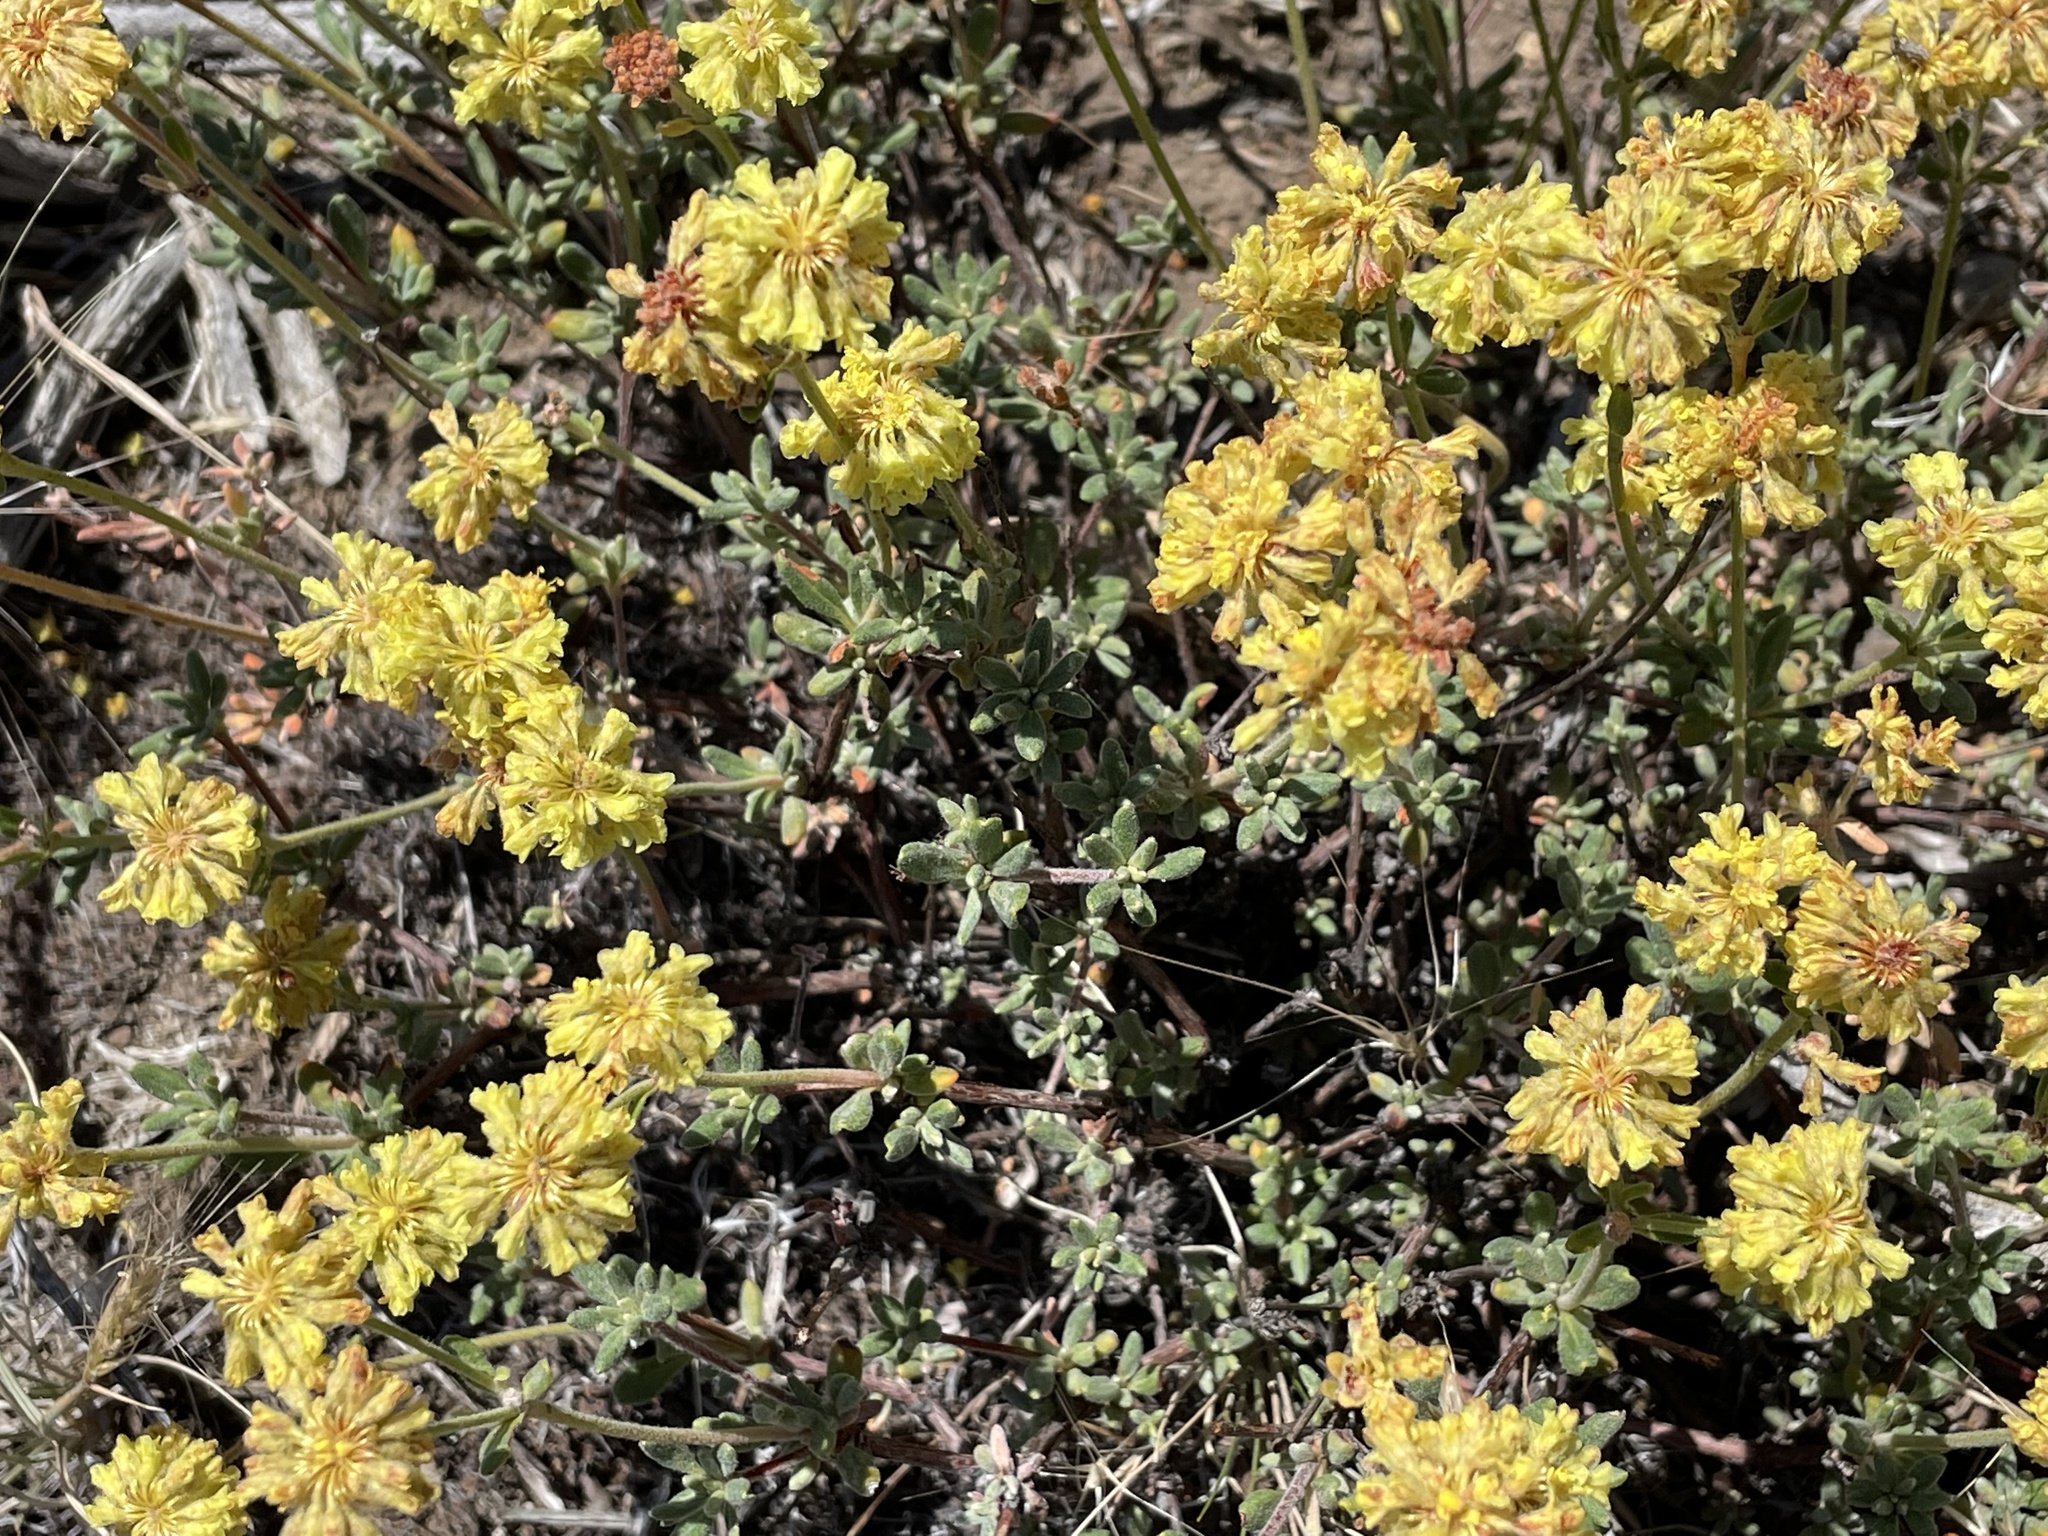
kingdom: Plantae
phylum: Tracheophyta
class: Magnoliopsida
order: Caryophyllales
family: Polygonaceae
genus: Eriogonum
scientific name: Eriogonum sphaerocephalum
